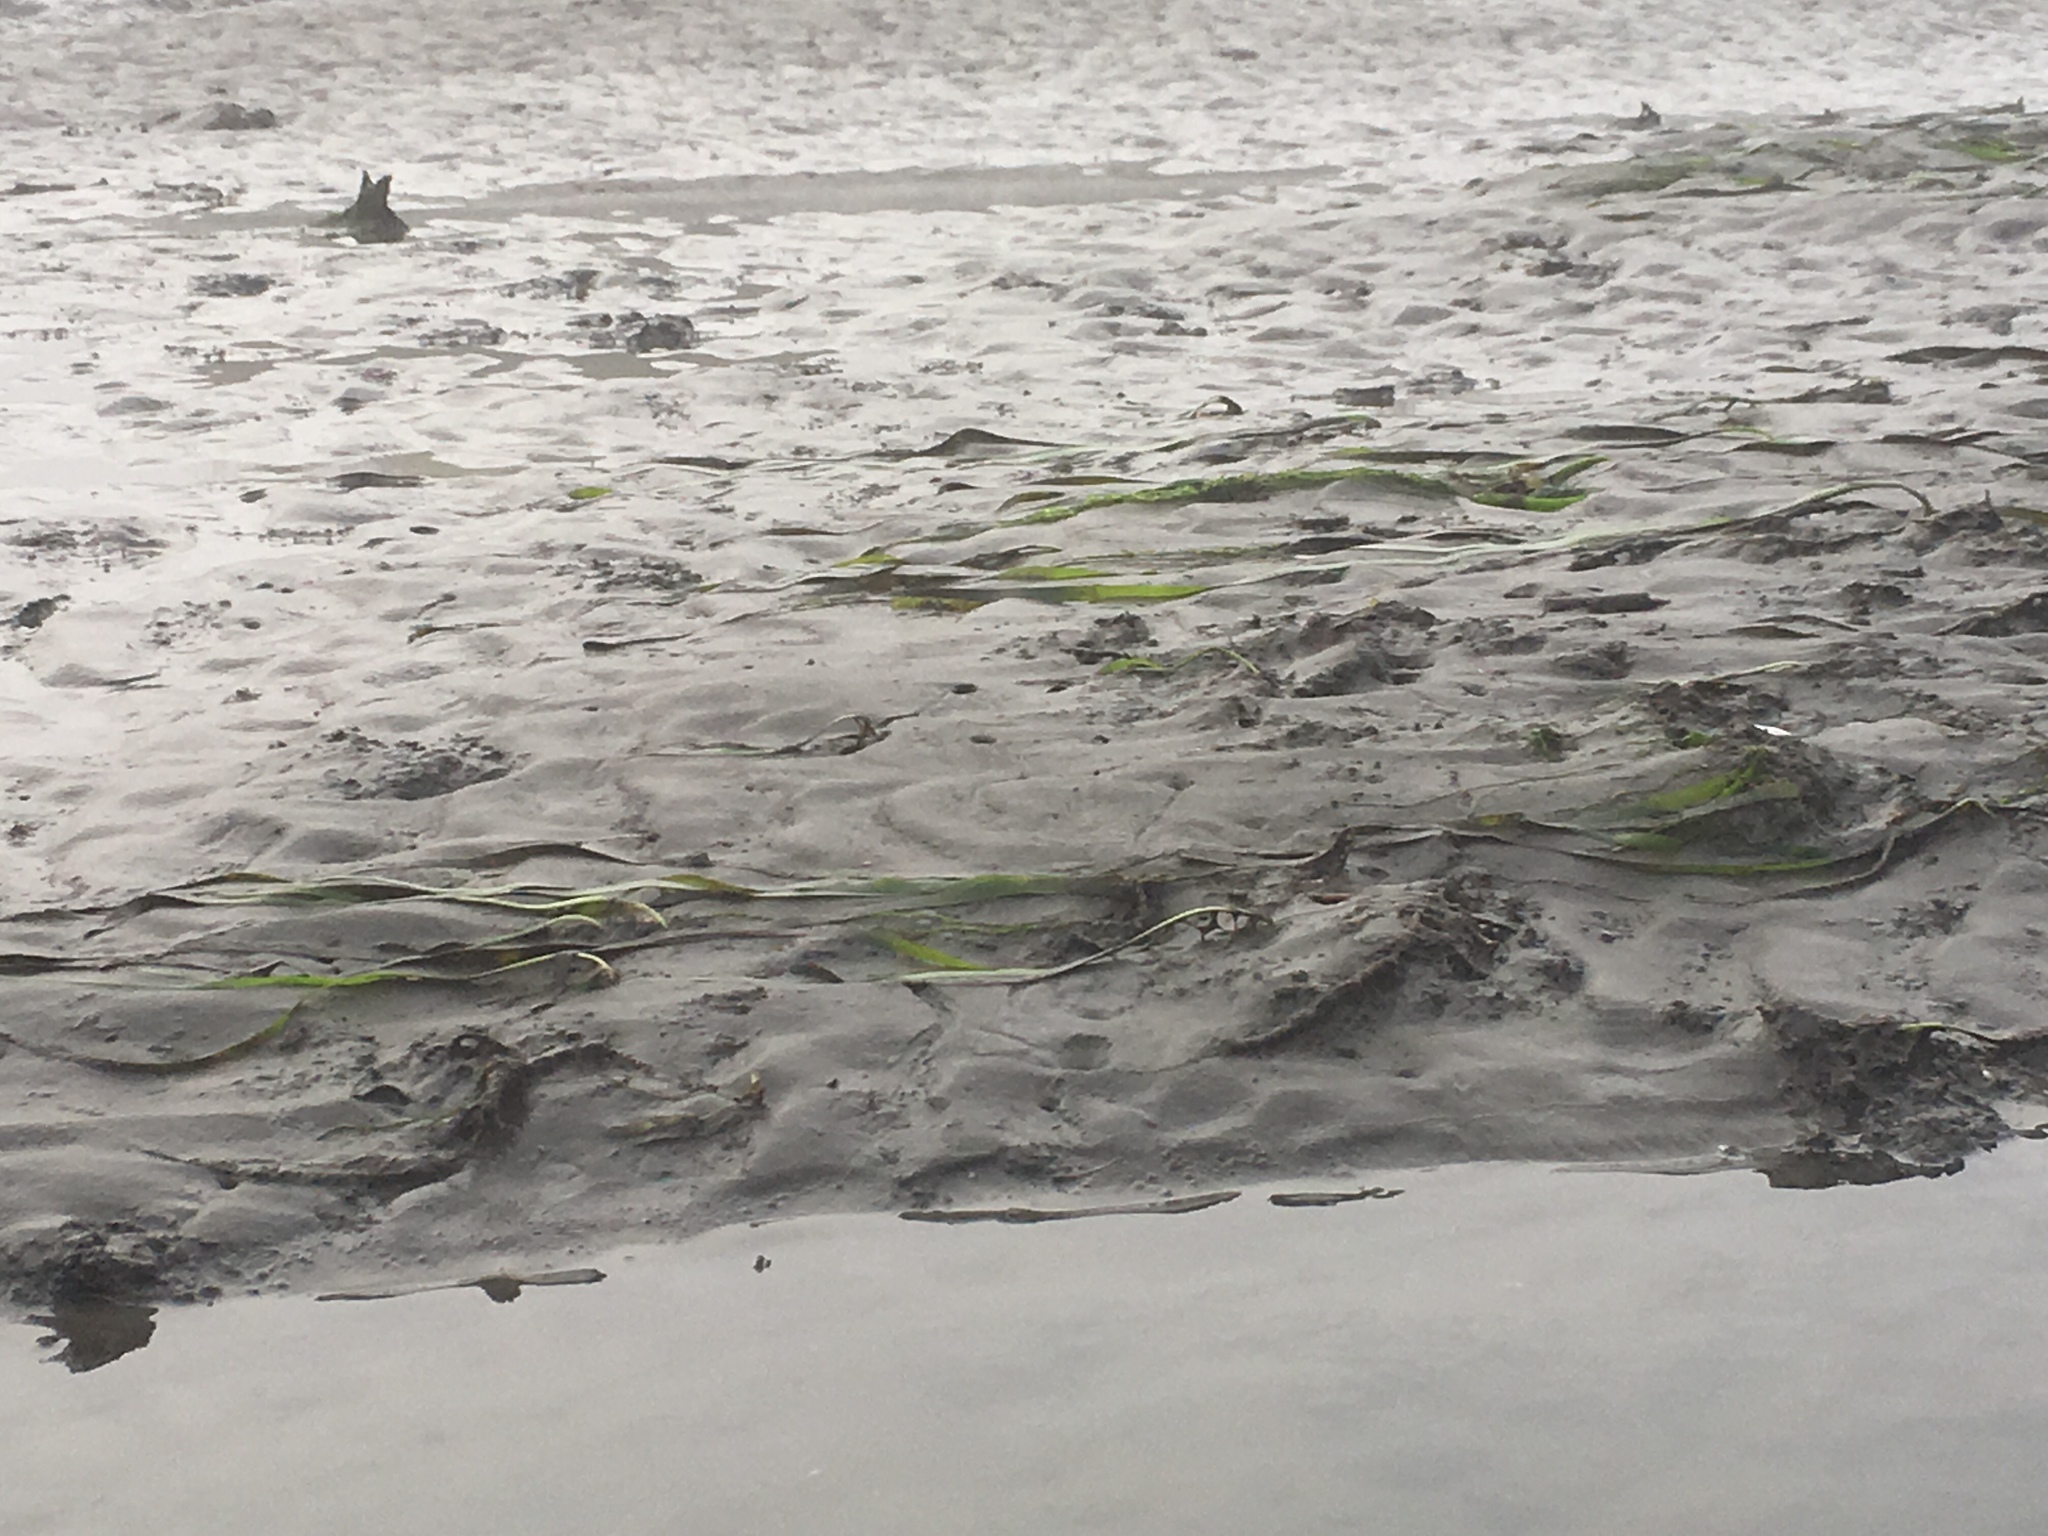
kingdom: Plantae
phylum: Tracheophyta
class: Liliopsida
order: Alismatales
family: Zosteraceae
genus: Zostera
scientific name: Zostera marina
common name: Eelgrass
